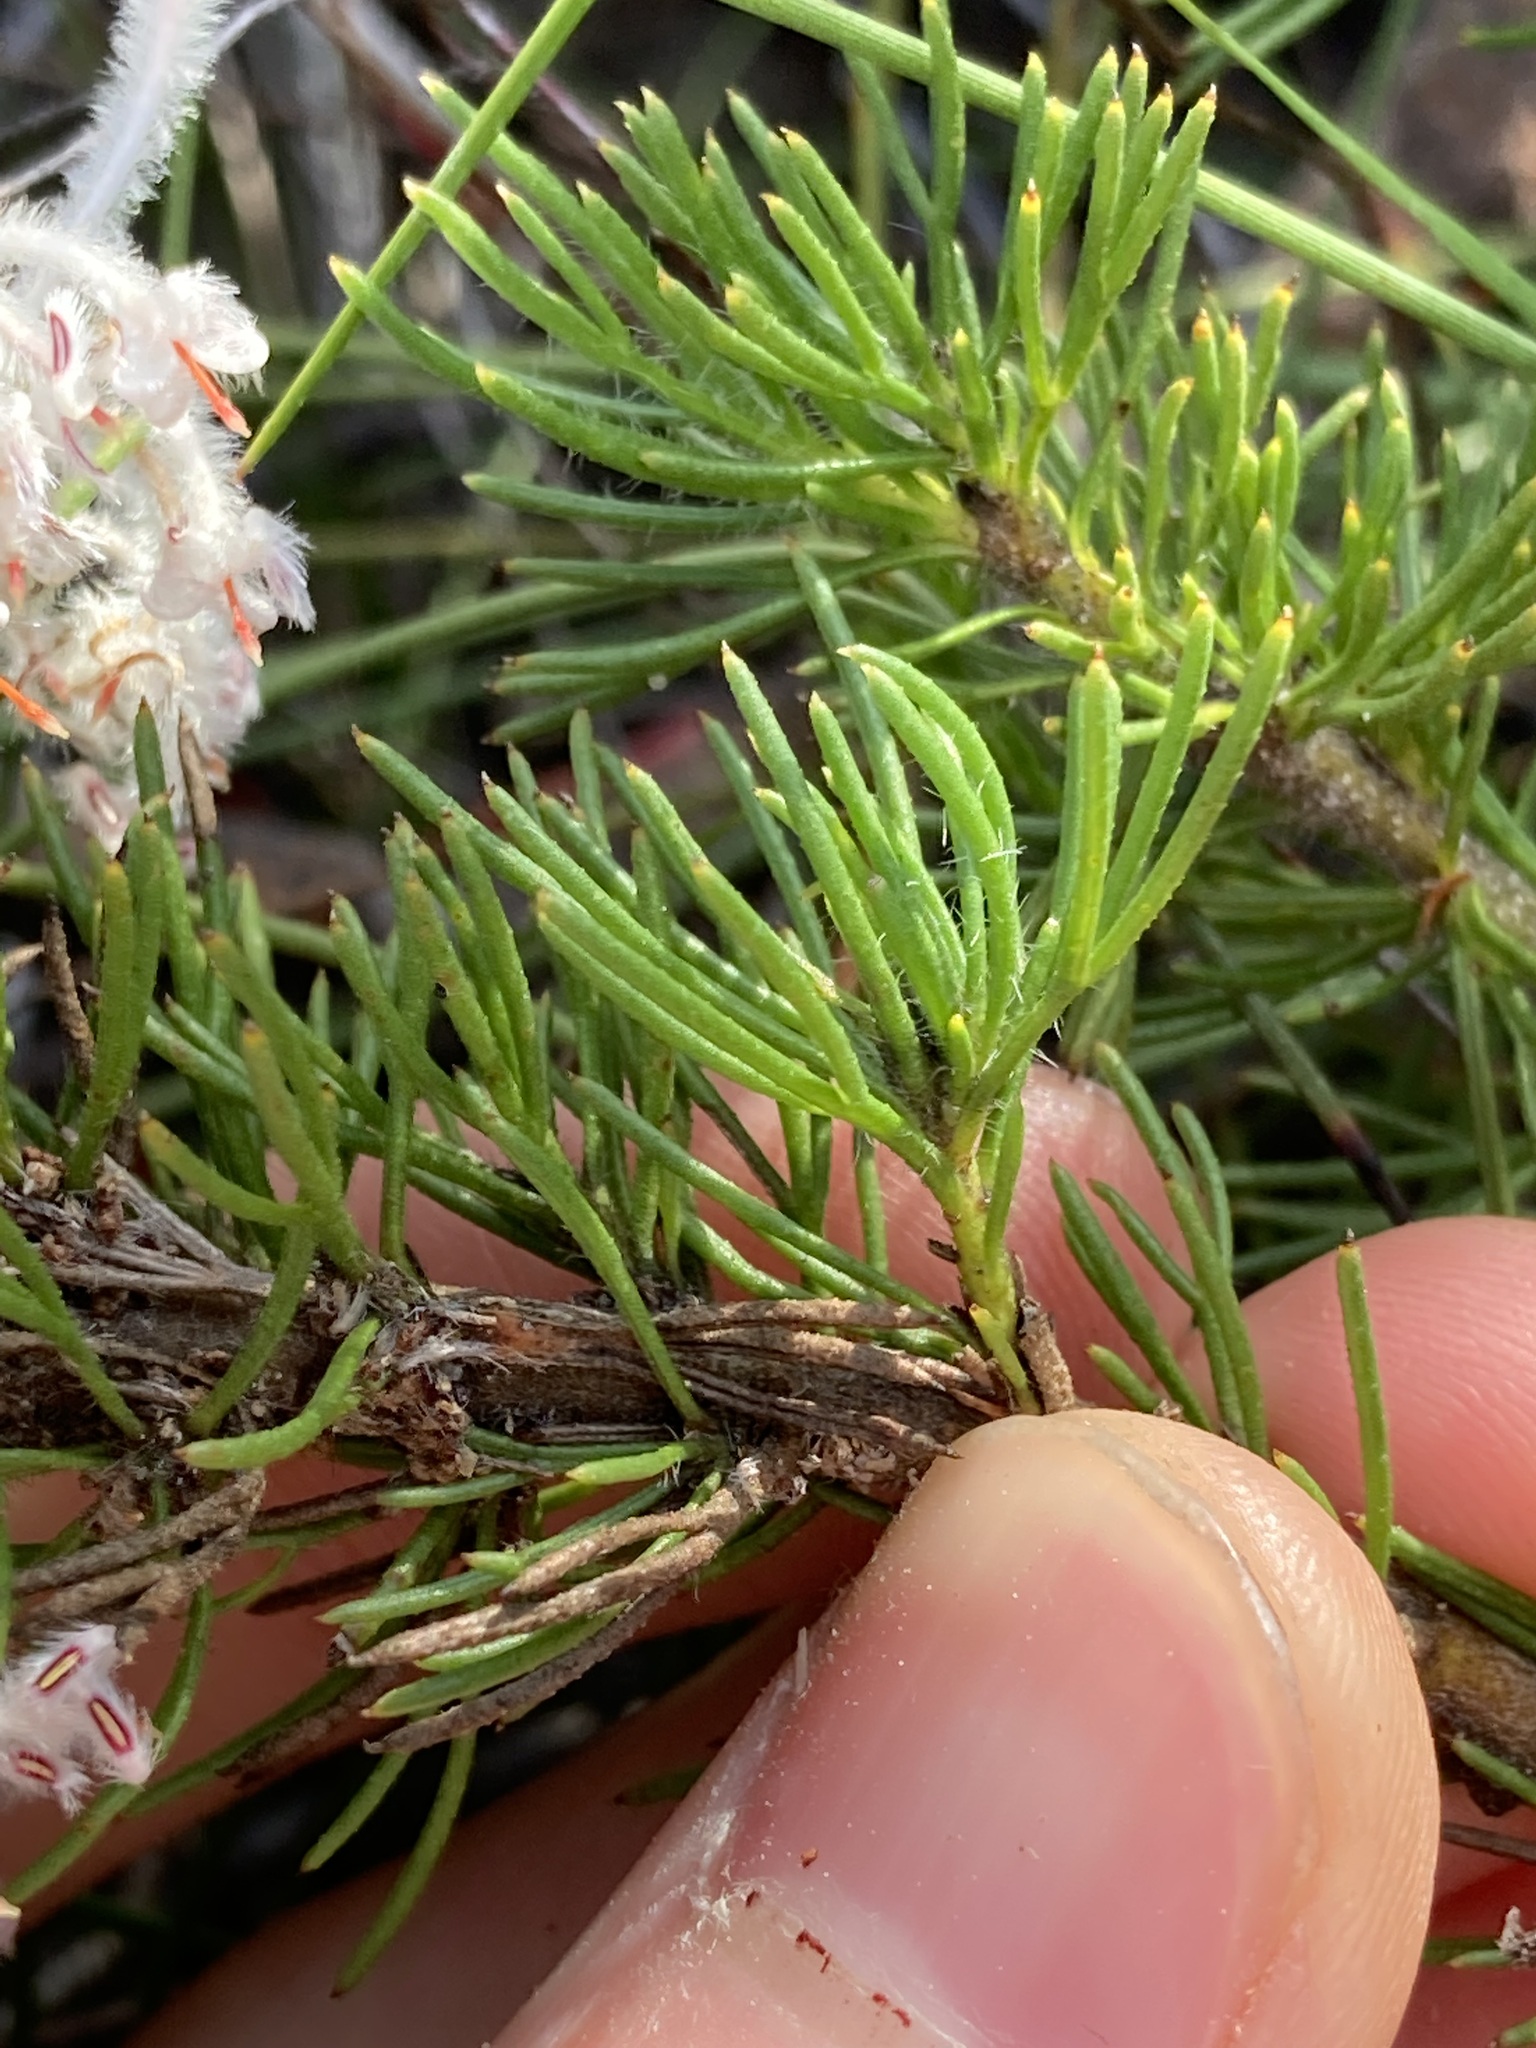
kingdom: Plantae
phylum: Tracheophyta
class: Magnoliopsida
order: Proteales
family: Proteaceae
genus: Isopogon
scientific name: Isopogon inconspicuus
